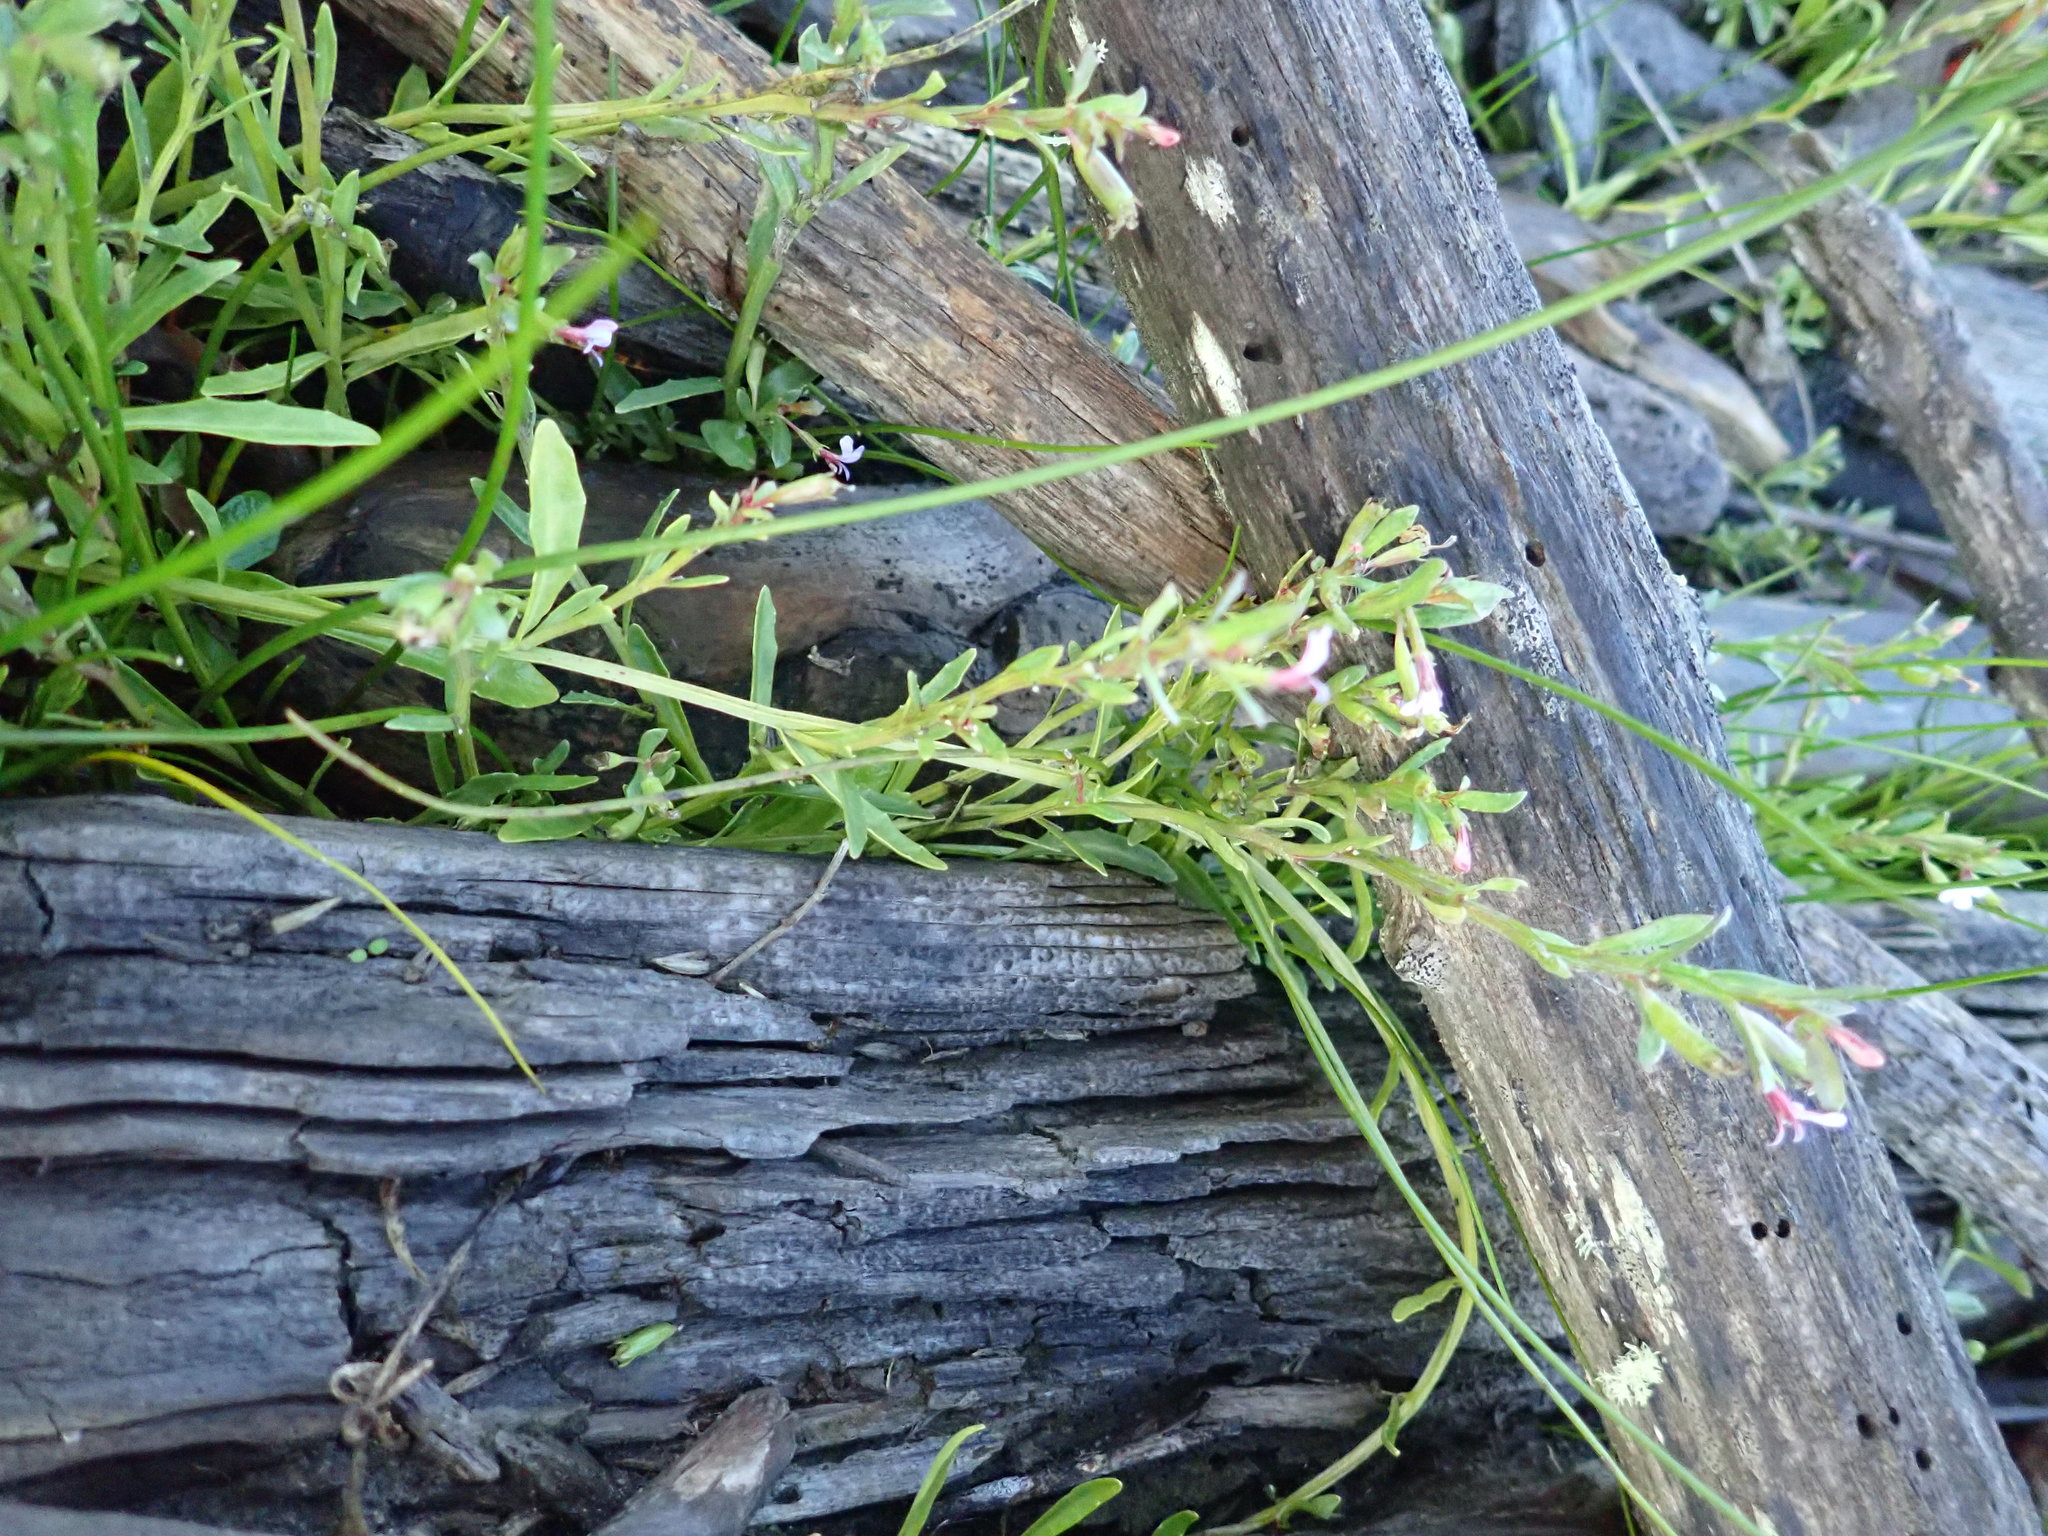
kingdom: Plantae
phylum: Tracheophyta
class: Magnoliopsida
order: Asterales
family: Campanulaceae
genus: Lobelia
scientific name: Lobelia anceps
